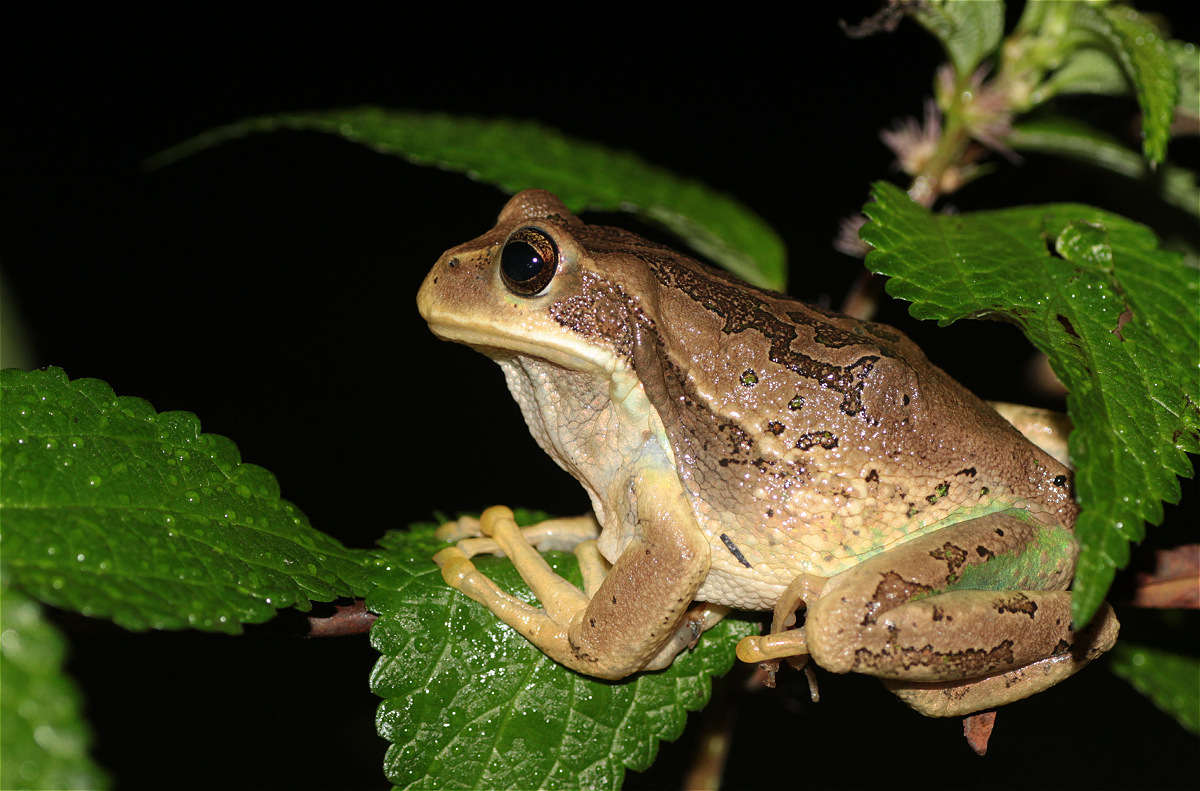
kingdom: Animalia
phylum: Chordata
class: Amphibia
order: Anura
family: Hemiphractidae
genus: Gastrotheca
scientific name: Gastrotheca cuencana
